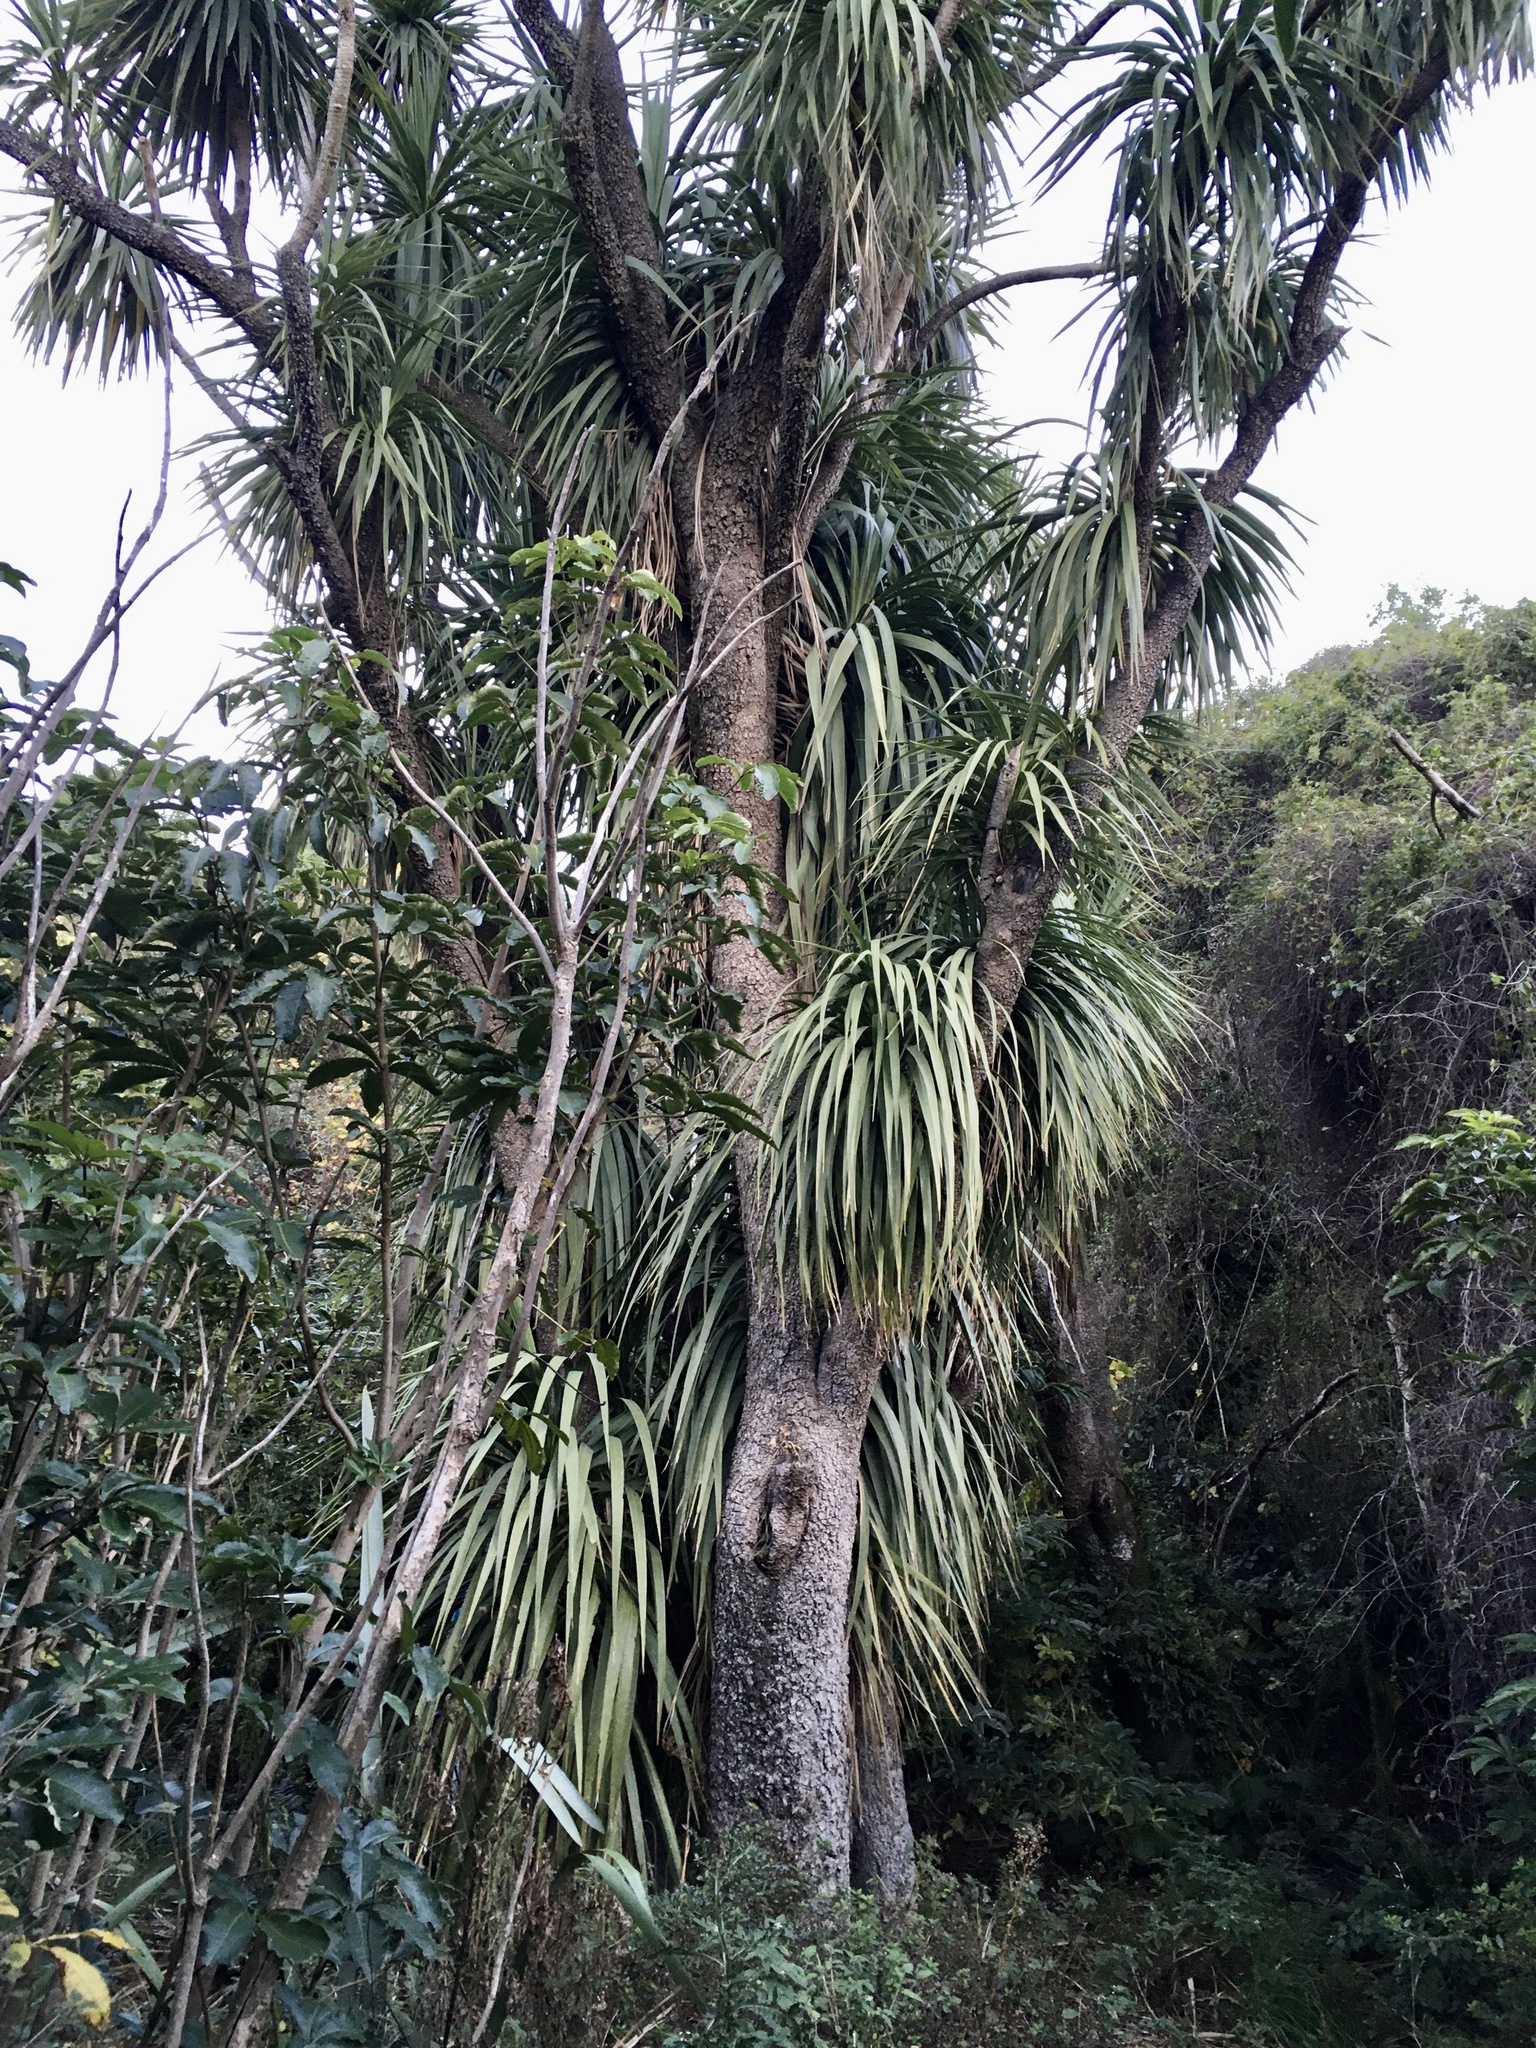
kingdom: Plantae
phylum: Tracheophyta
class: Liliopsida
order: Asparagales
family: Asparagaceae
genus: Cordyline
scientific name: Cordyline australis
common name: Cabbage-palm
